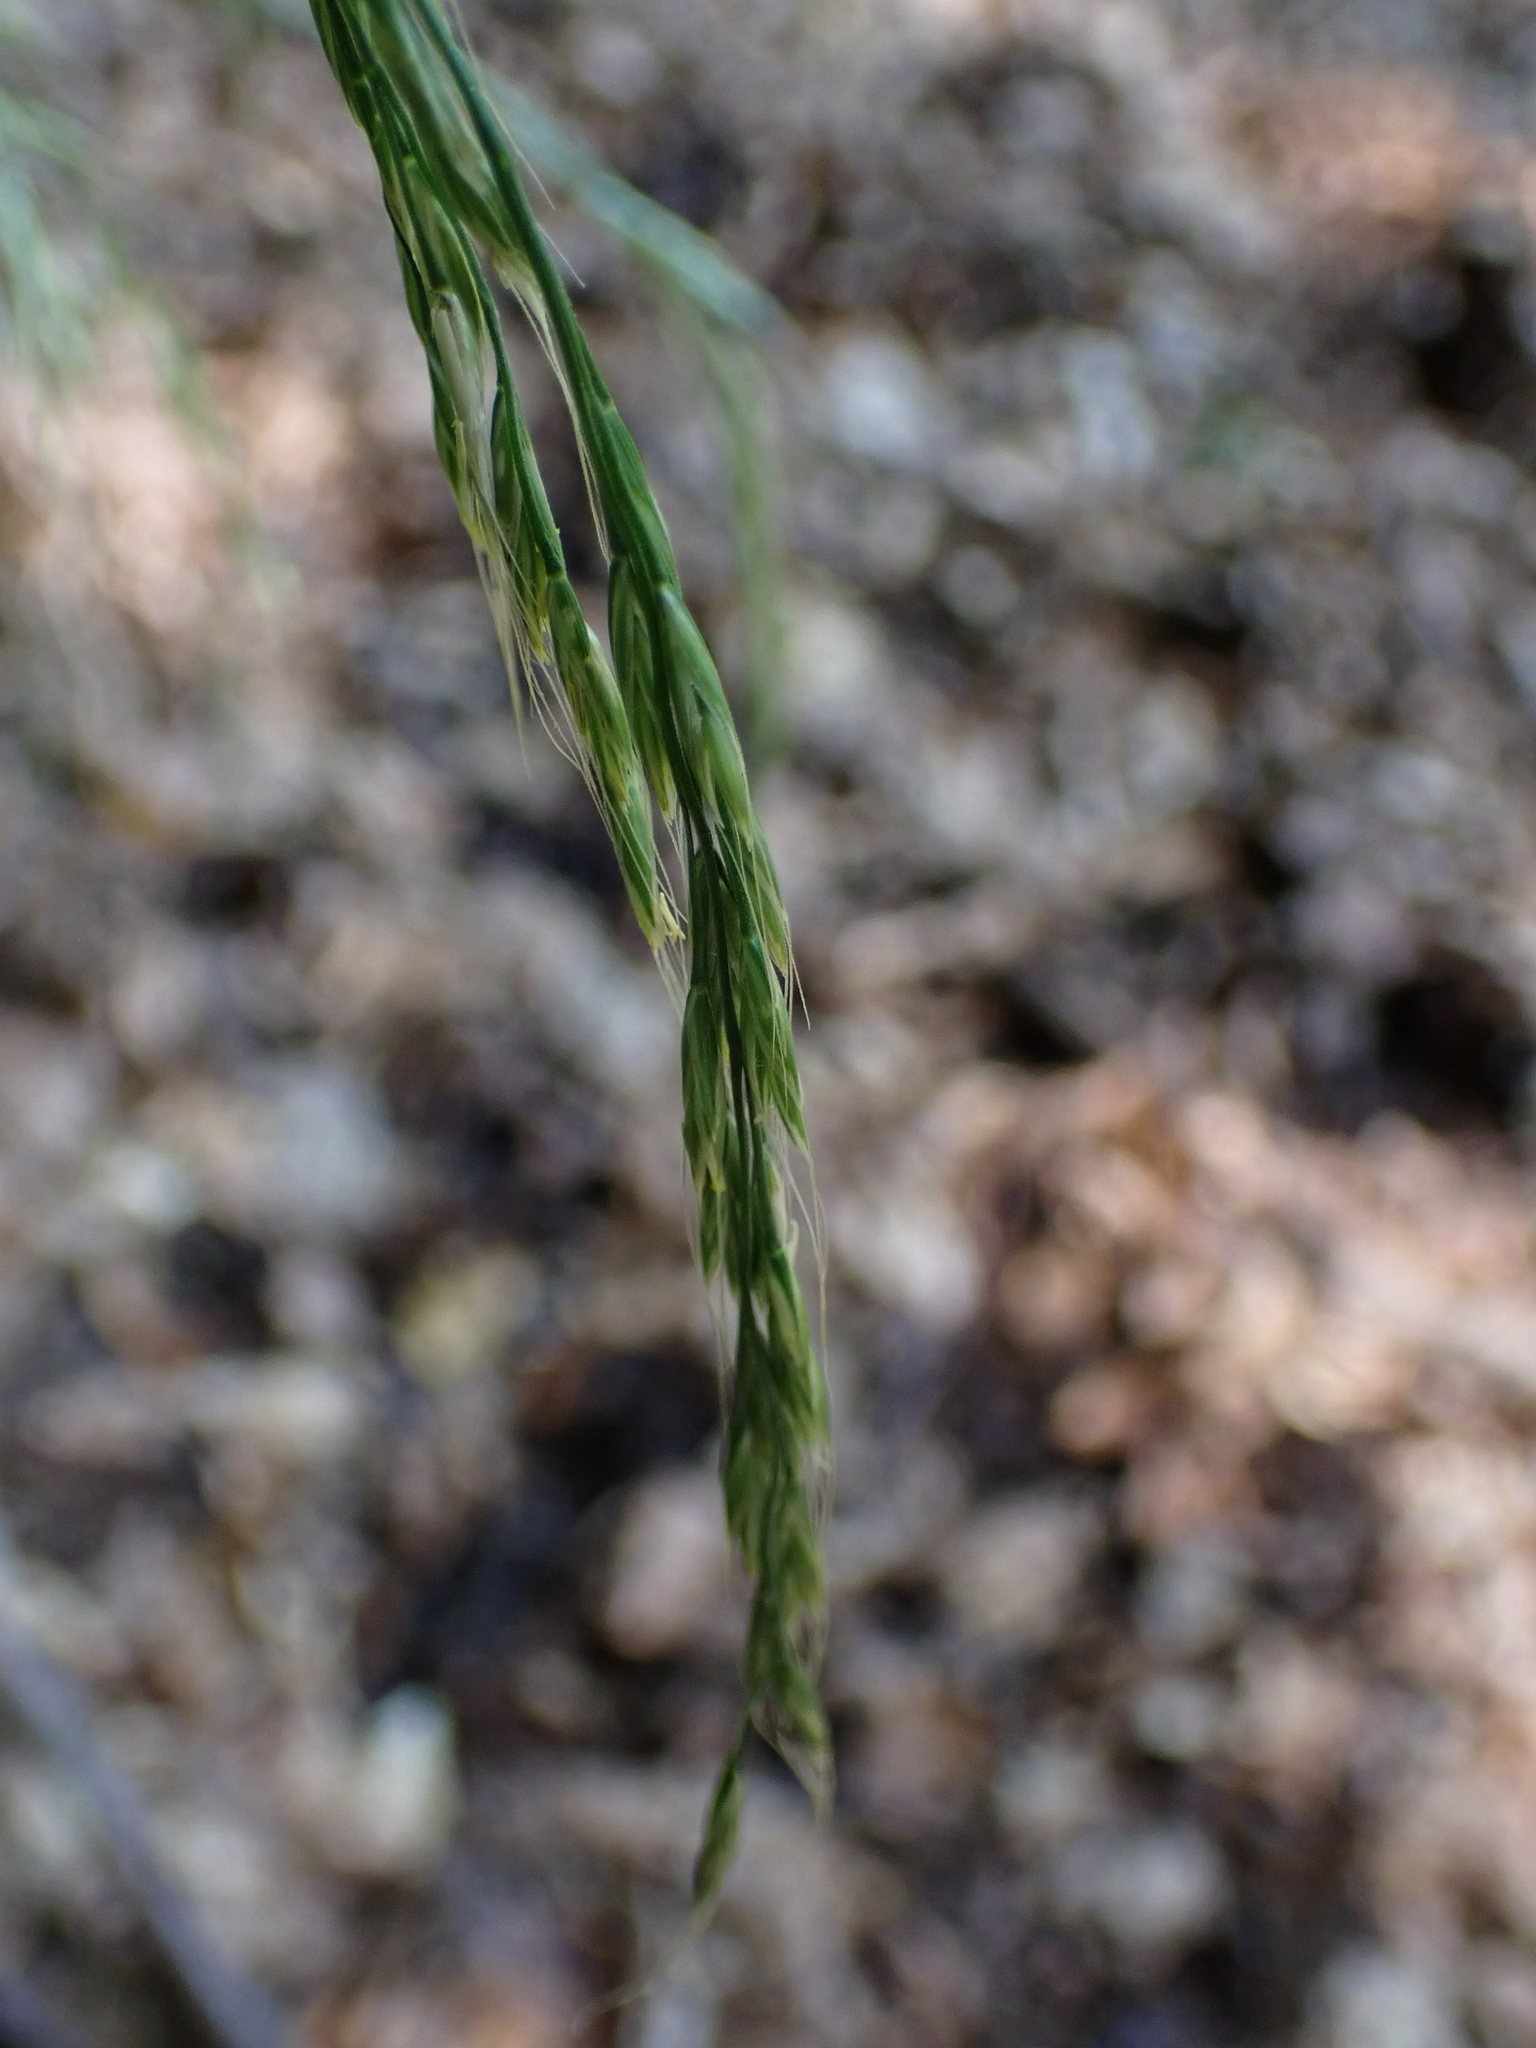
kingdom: Plantae
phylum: Tracheophyta
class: Liliopsida
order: Poales
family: Poaceae
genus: Lolium
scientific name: Lolium giganteum
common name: Giant fescue
